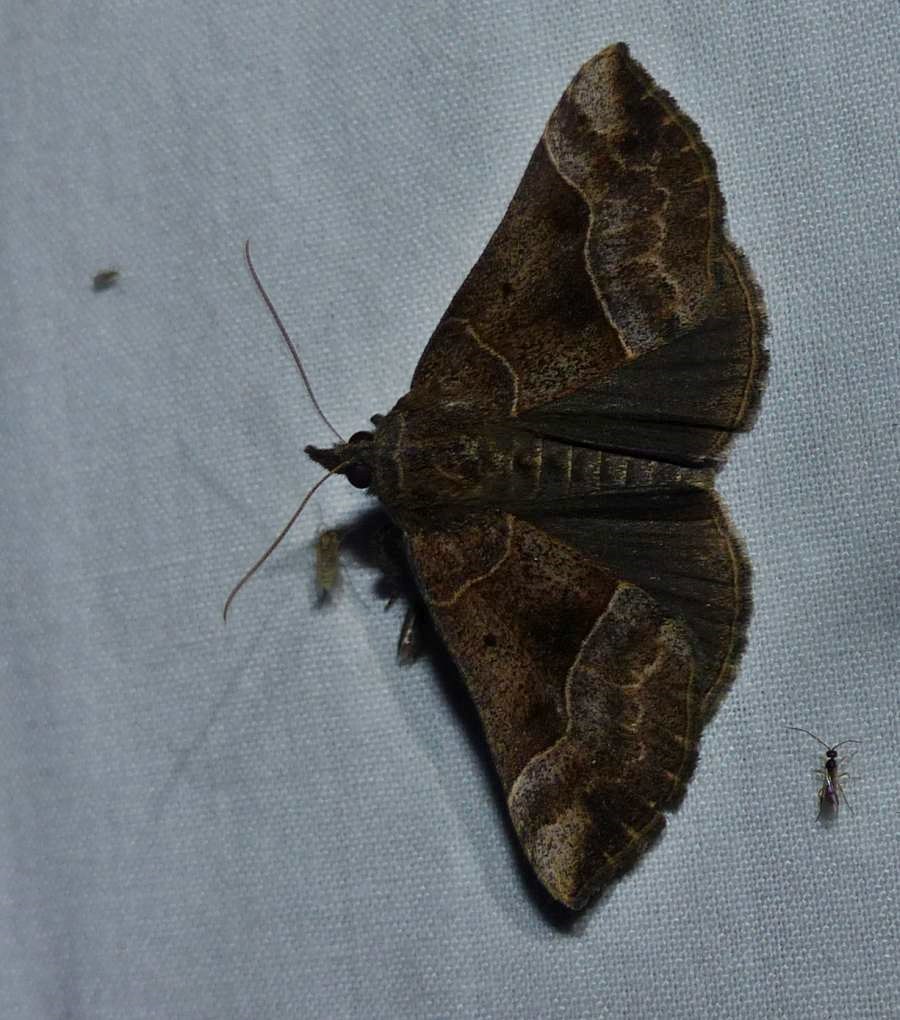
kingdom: Animalia
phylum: Arthropoda
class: Insecta
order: Lepidoptera
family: Erebidae
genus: Hypena
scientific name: Hypena deceptalis
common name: Deceptive snout
